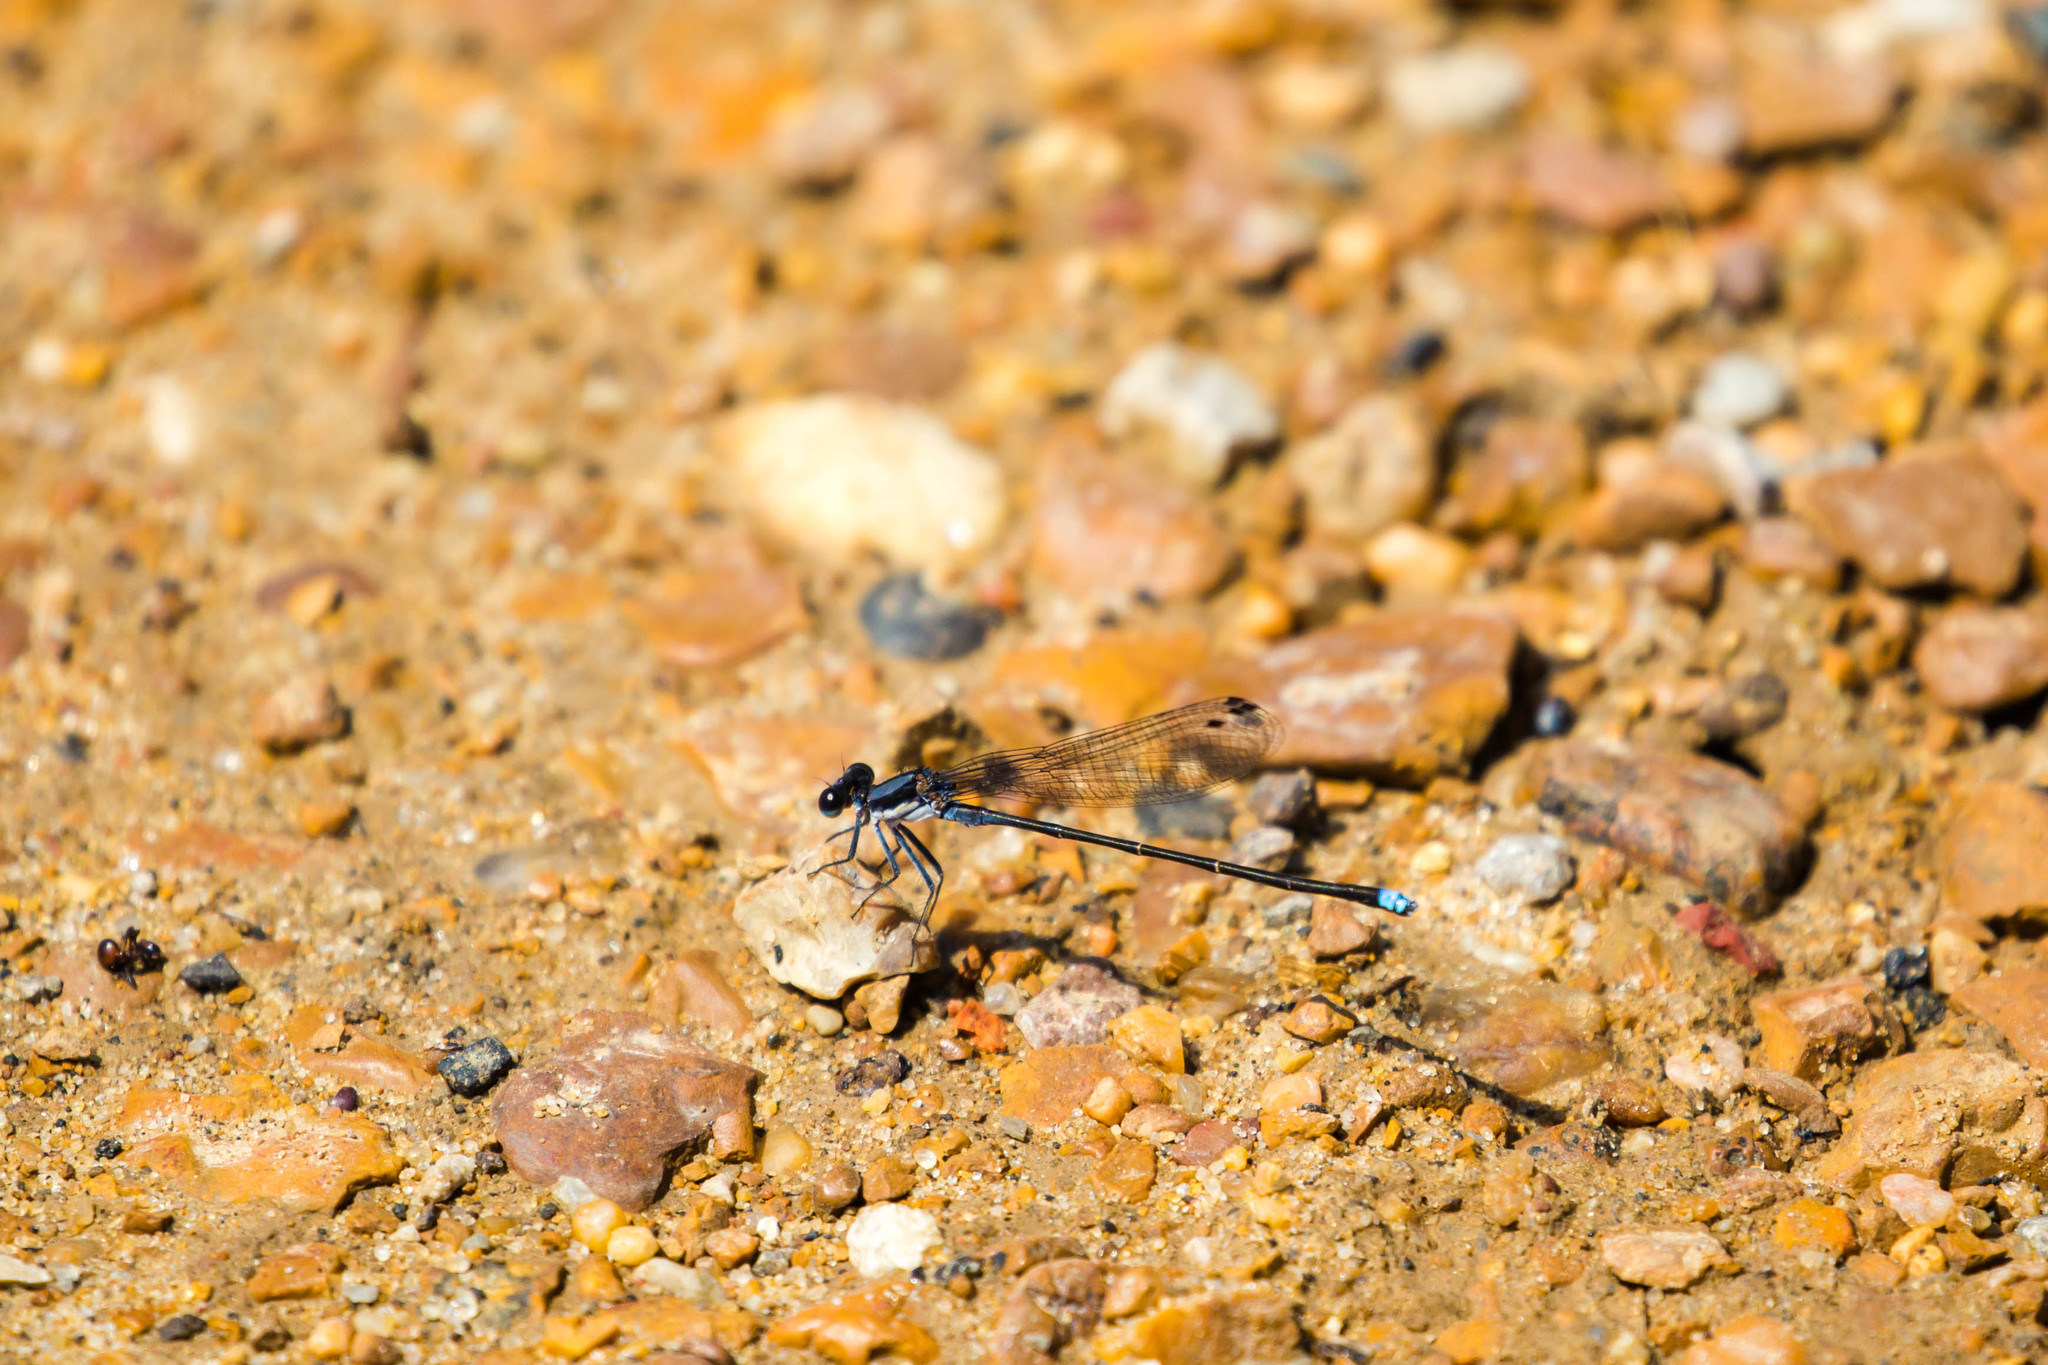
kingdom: Animalia
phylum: Arthropoda
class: Insecta
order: Odonata
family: Coenagrionidae
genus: Argia
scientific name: Argia tibialis
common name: Blue-tipped dancer
